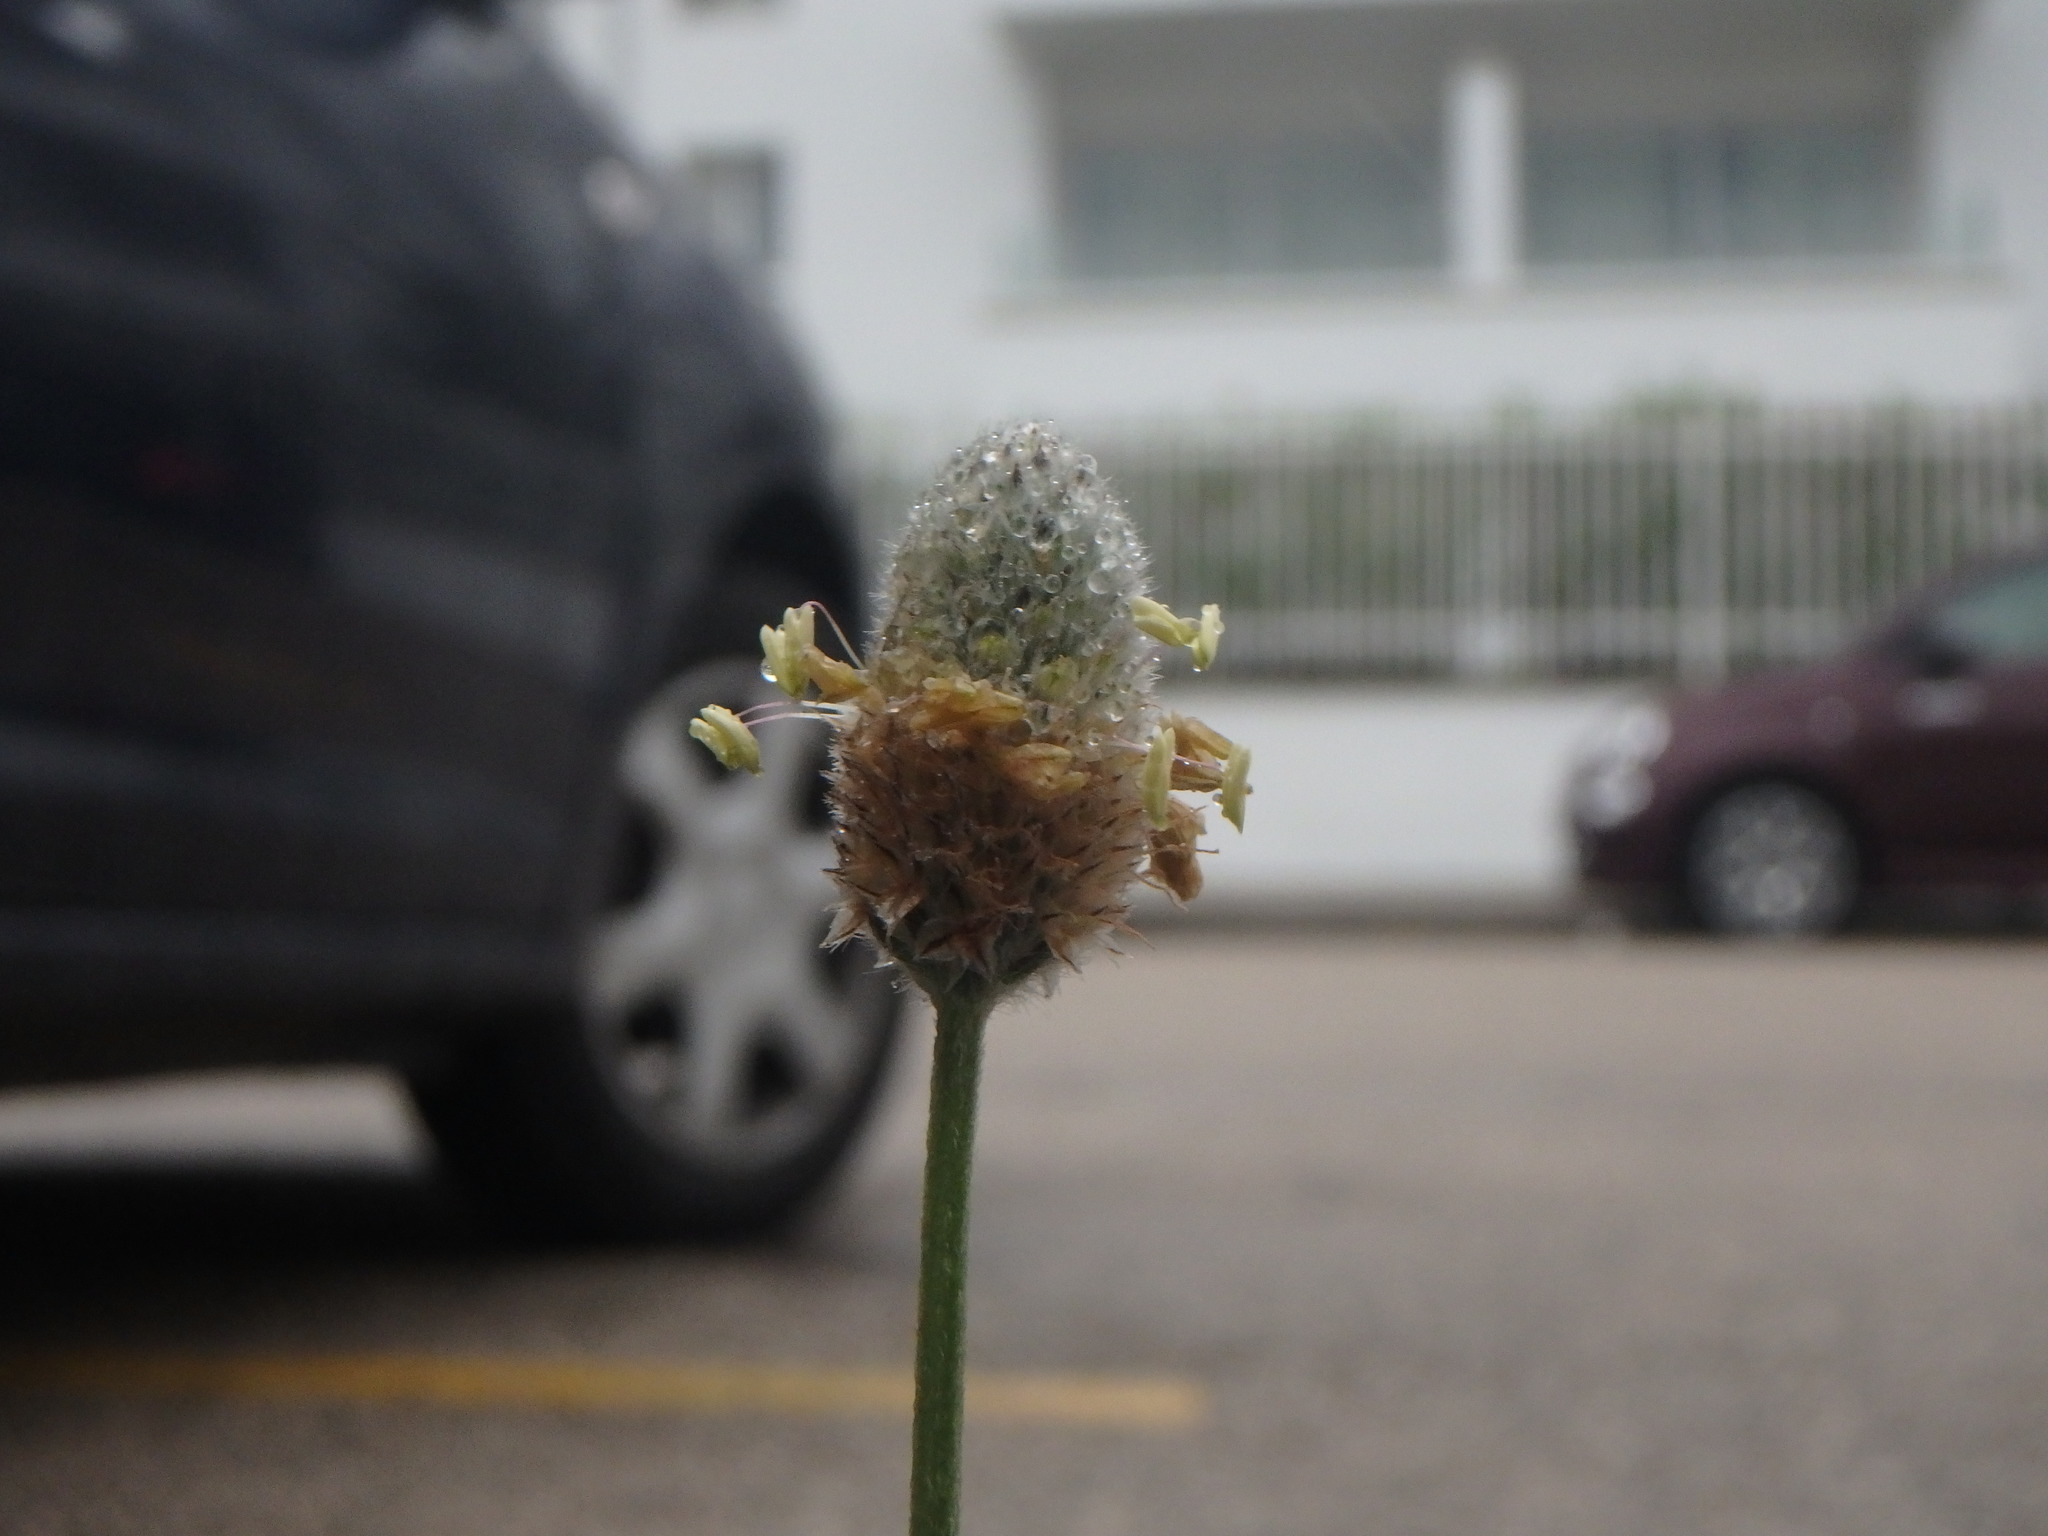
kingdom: Plantae
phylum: Tracheophyta
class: Magnoliopsida
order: Lamiales
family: Plantaginaceae
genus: Plantago
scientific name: Plantago lagopus
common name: Hare-foot plantain
